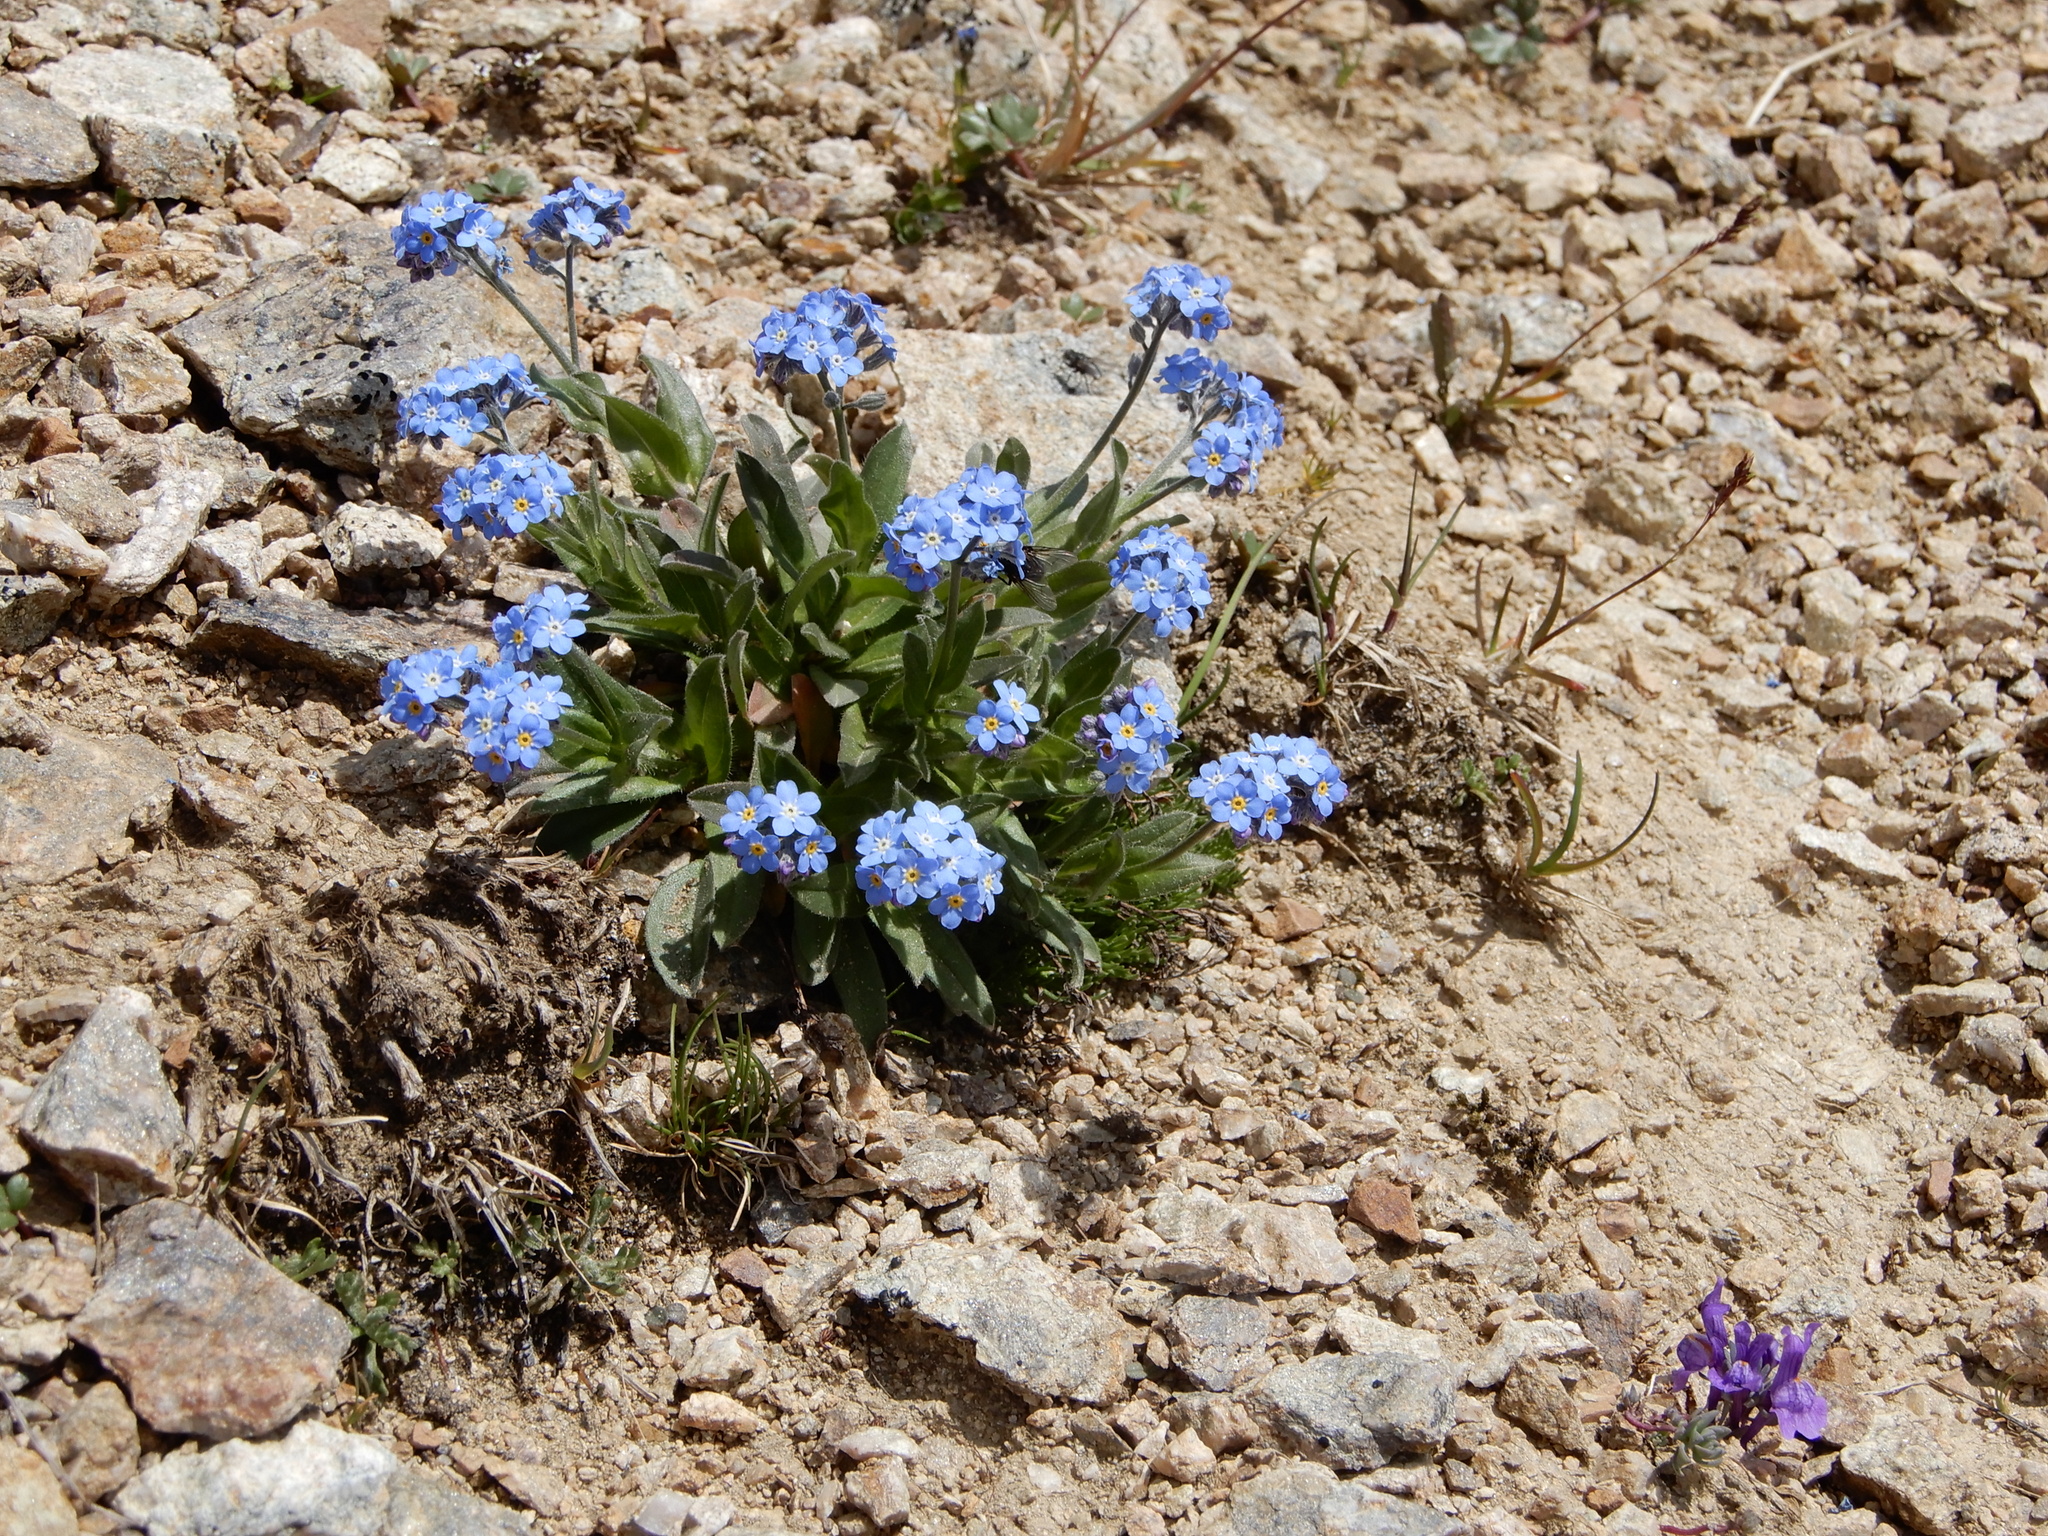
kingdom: Plantae
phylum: Tracheophyta
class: Magnoliopsida
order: Boraginales
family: Boraginaceae
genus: Myosotis
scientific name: Myosotis alpestris
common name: Alpine forget-me-not
